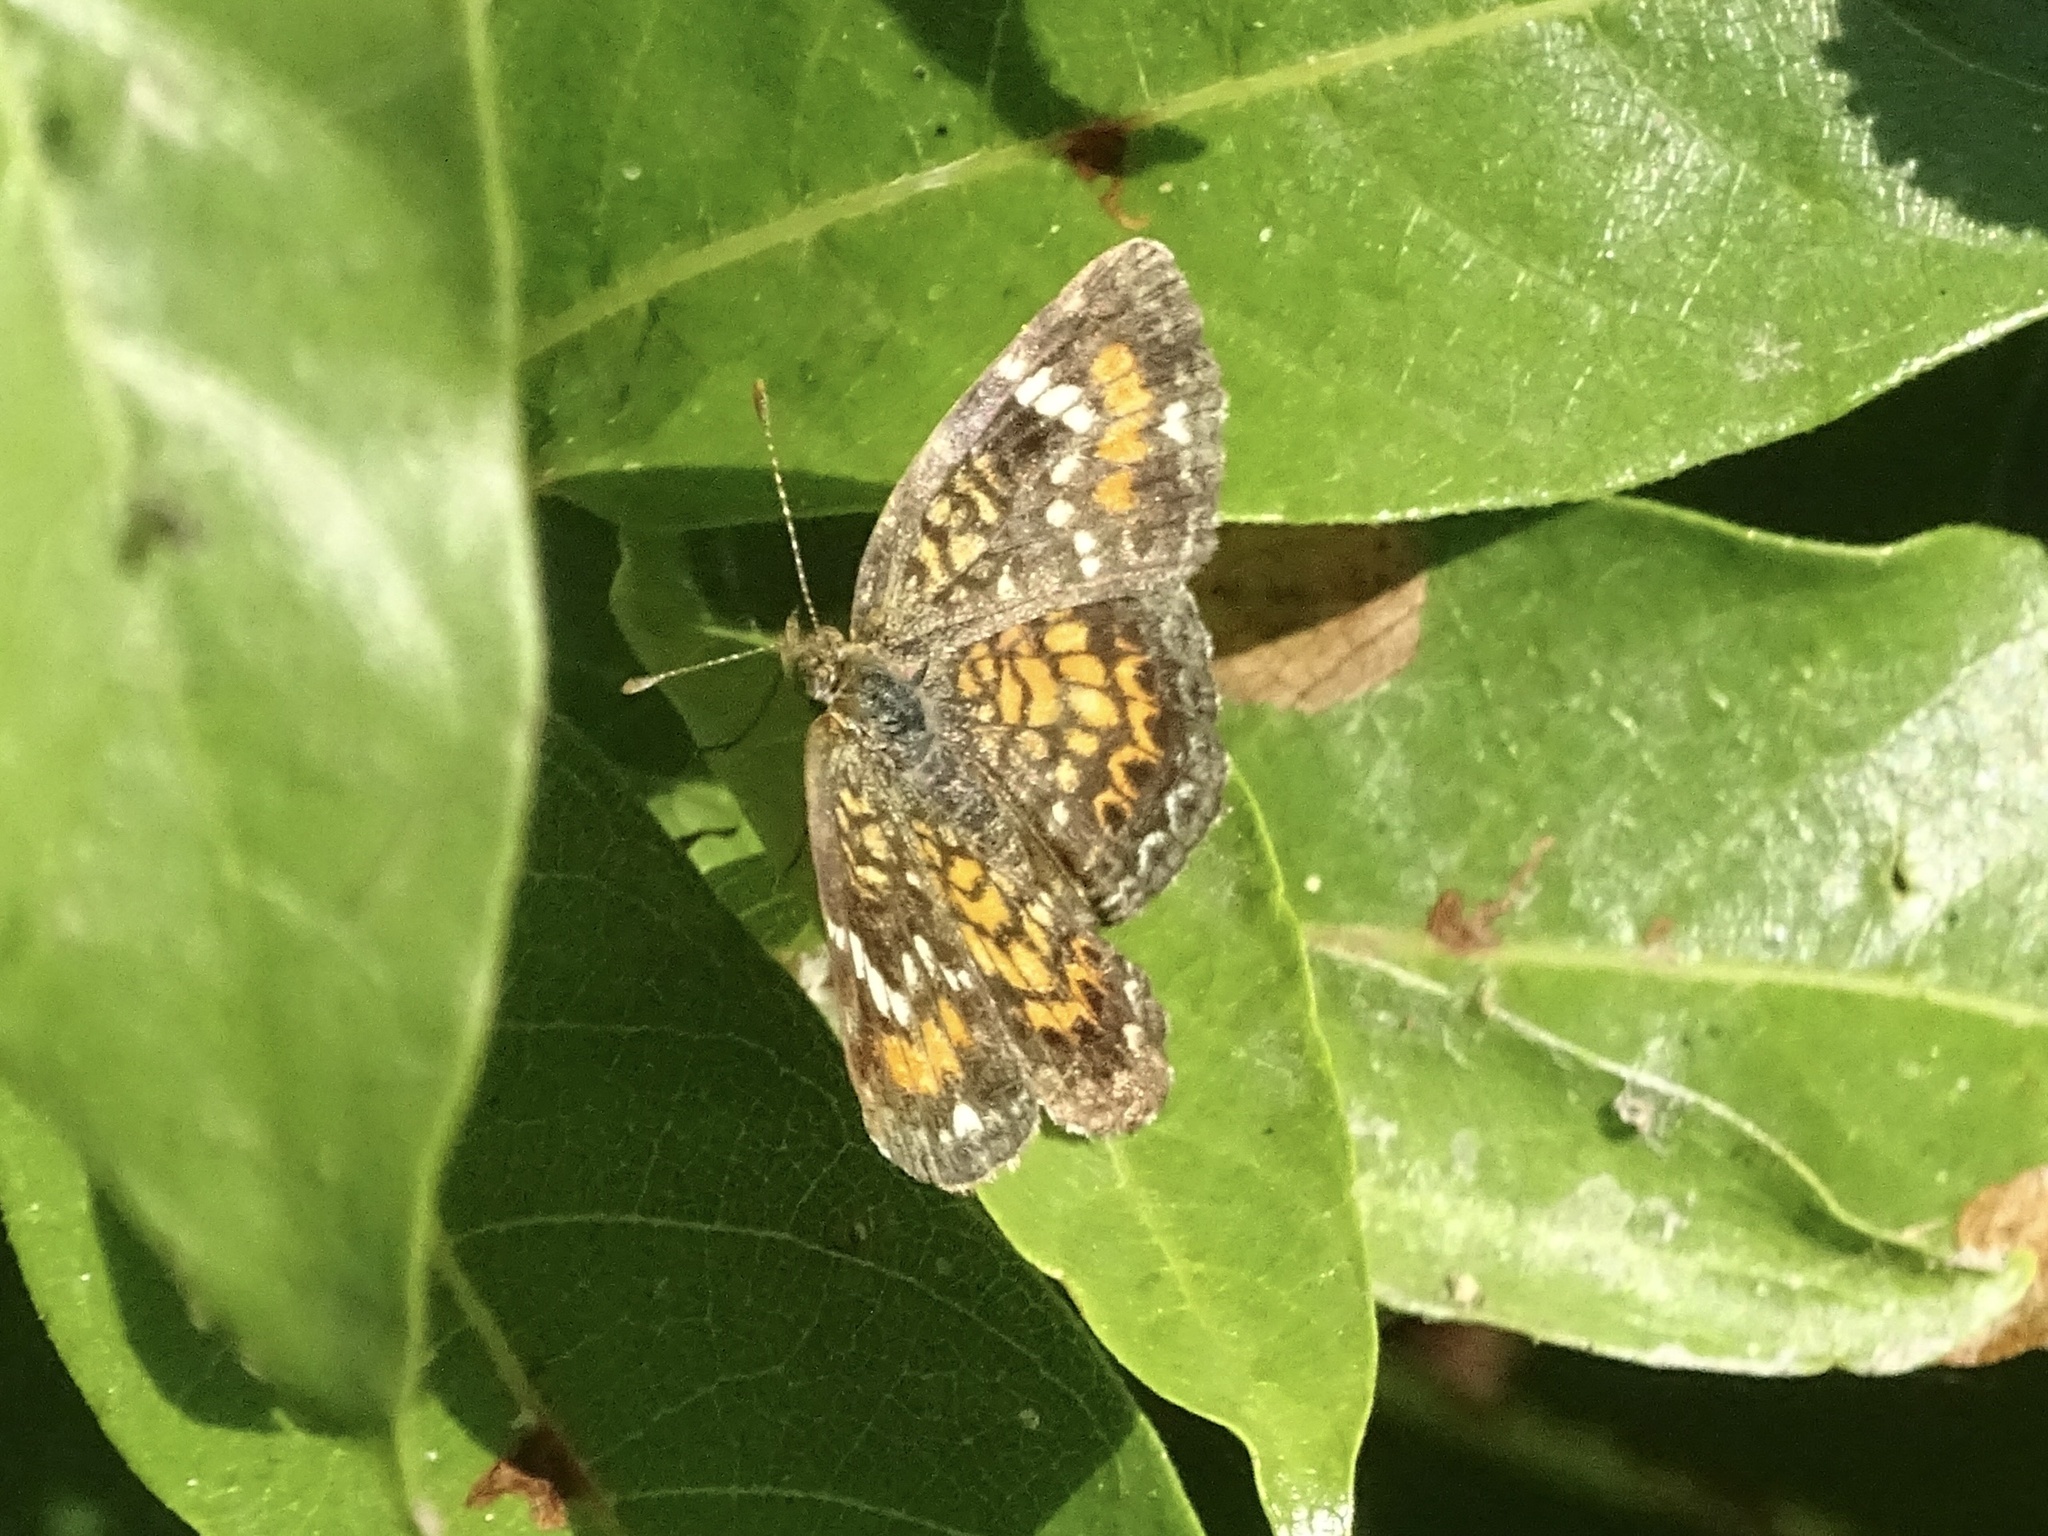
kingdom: Animalia
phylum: Arthropoda
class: Insecta
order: Lepidoptera
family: Nymphalidae
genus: Phyciodes
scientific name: Phyciodes phaon
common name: Phaon crescent
